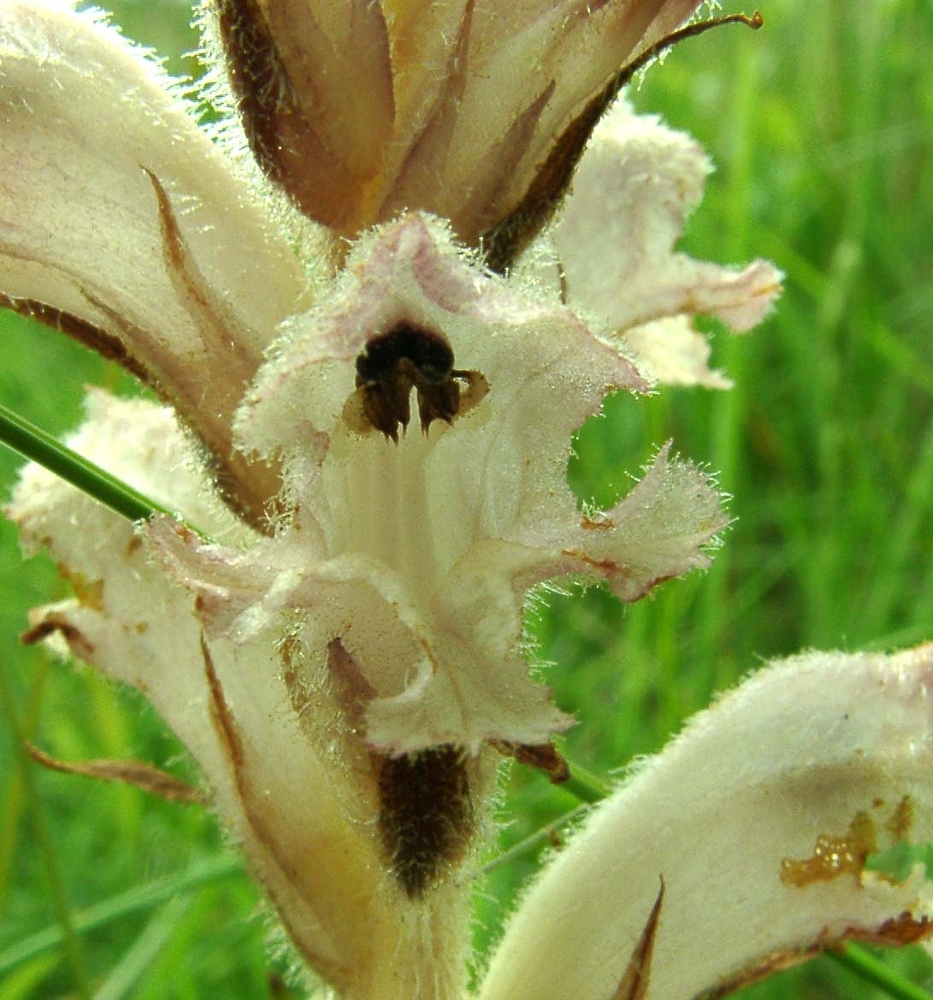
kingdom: Plantae
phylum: Tracheophyta
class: Magnoliopsida
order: Lamiales
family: Orobanchaceae
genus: Orobanche
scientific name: Orobanche caryophyllacea
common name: Bedstraw broomrape
